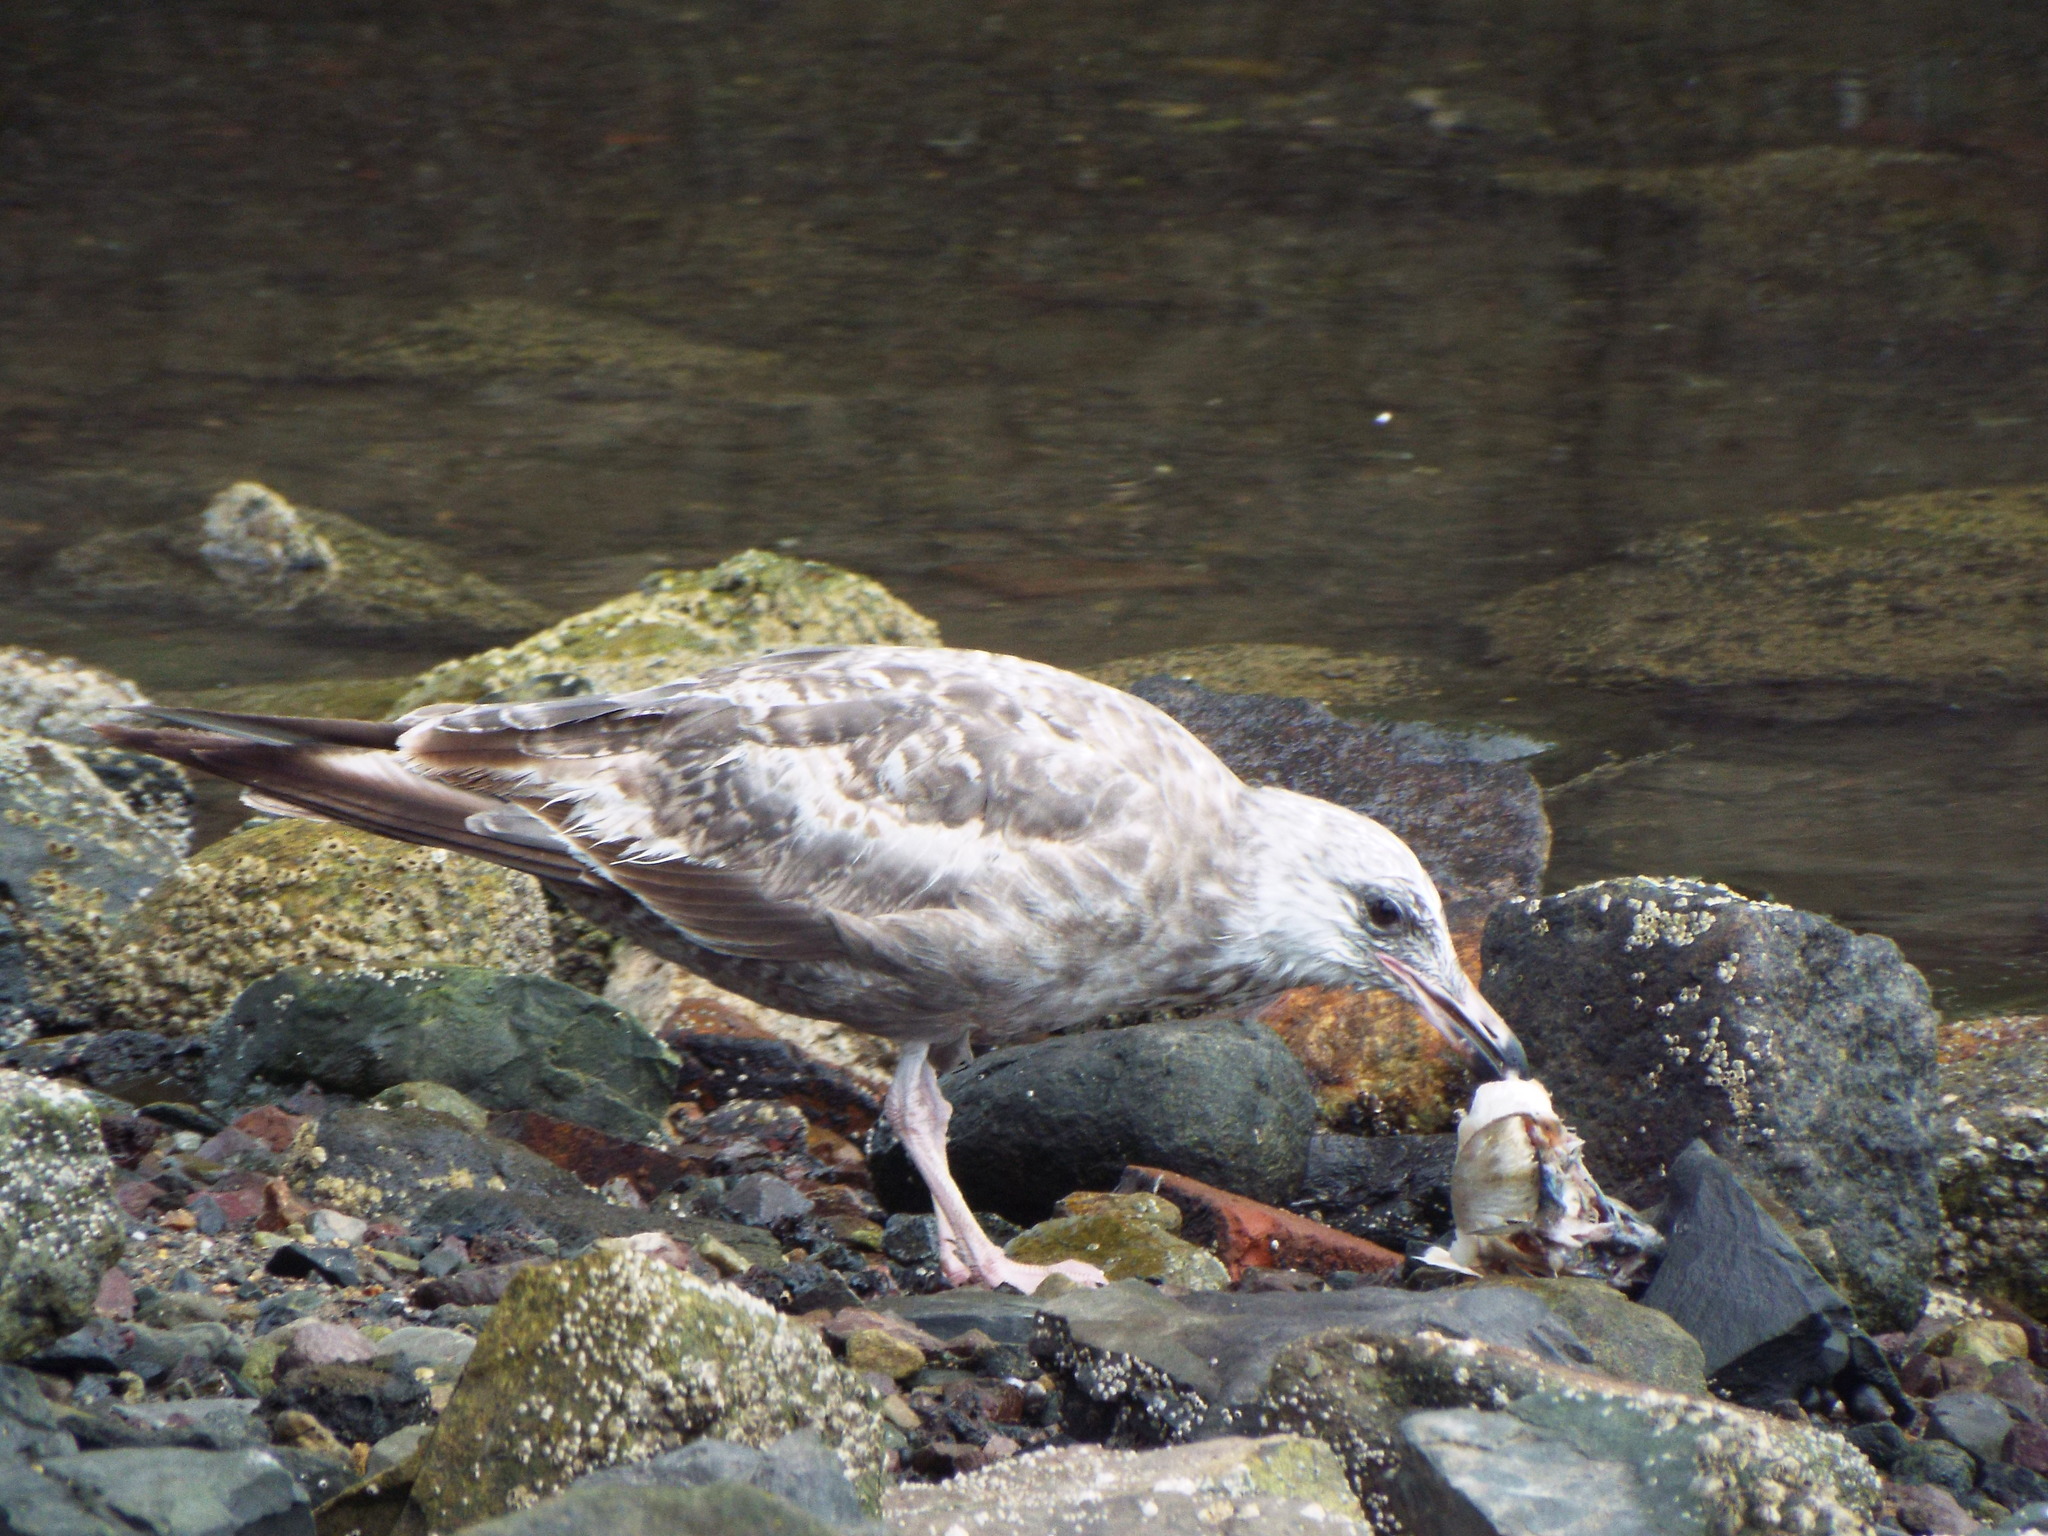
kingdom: Animalia
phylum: Chordata
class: Aves
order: Charadriiformes
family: Laridae
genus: Larus
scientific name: Larus argentatus
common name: Herring gull
